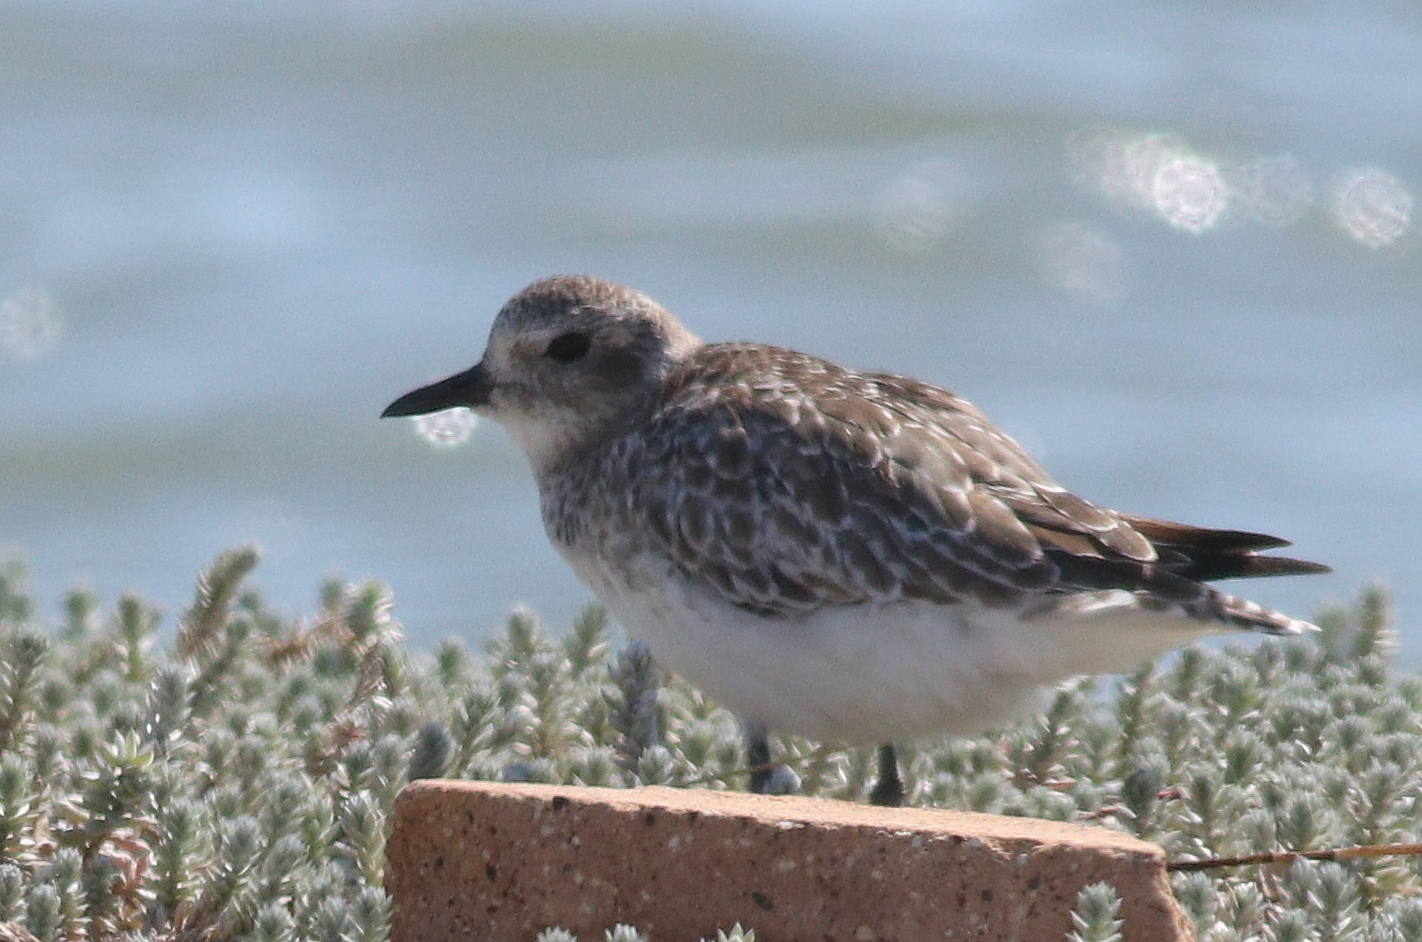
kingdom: Animalia
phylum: Chordata
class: Aves
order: Charadriiformes
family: Charadriidae
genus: Pluvialis
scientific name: Pluvialis squatarola
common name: Grey plover
